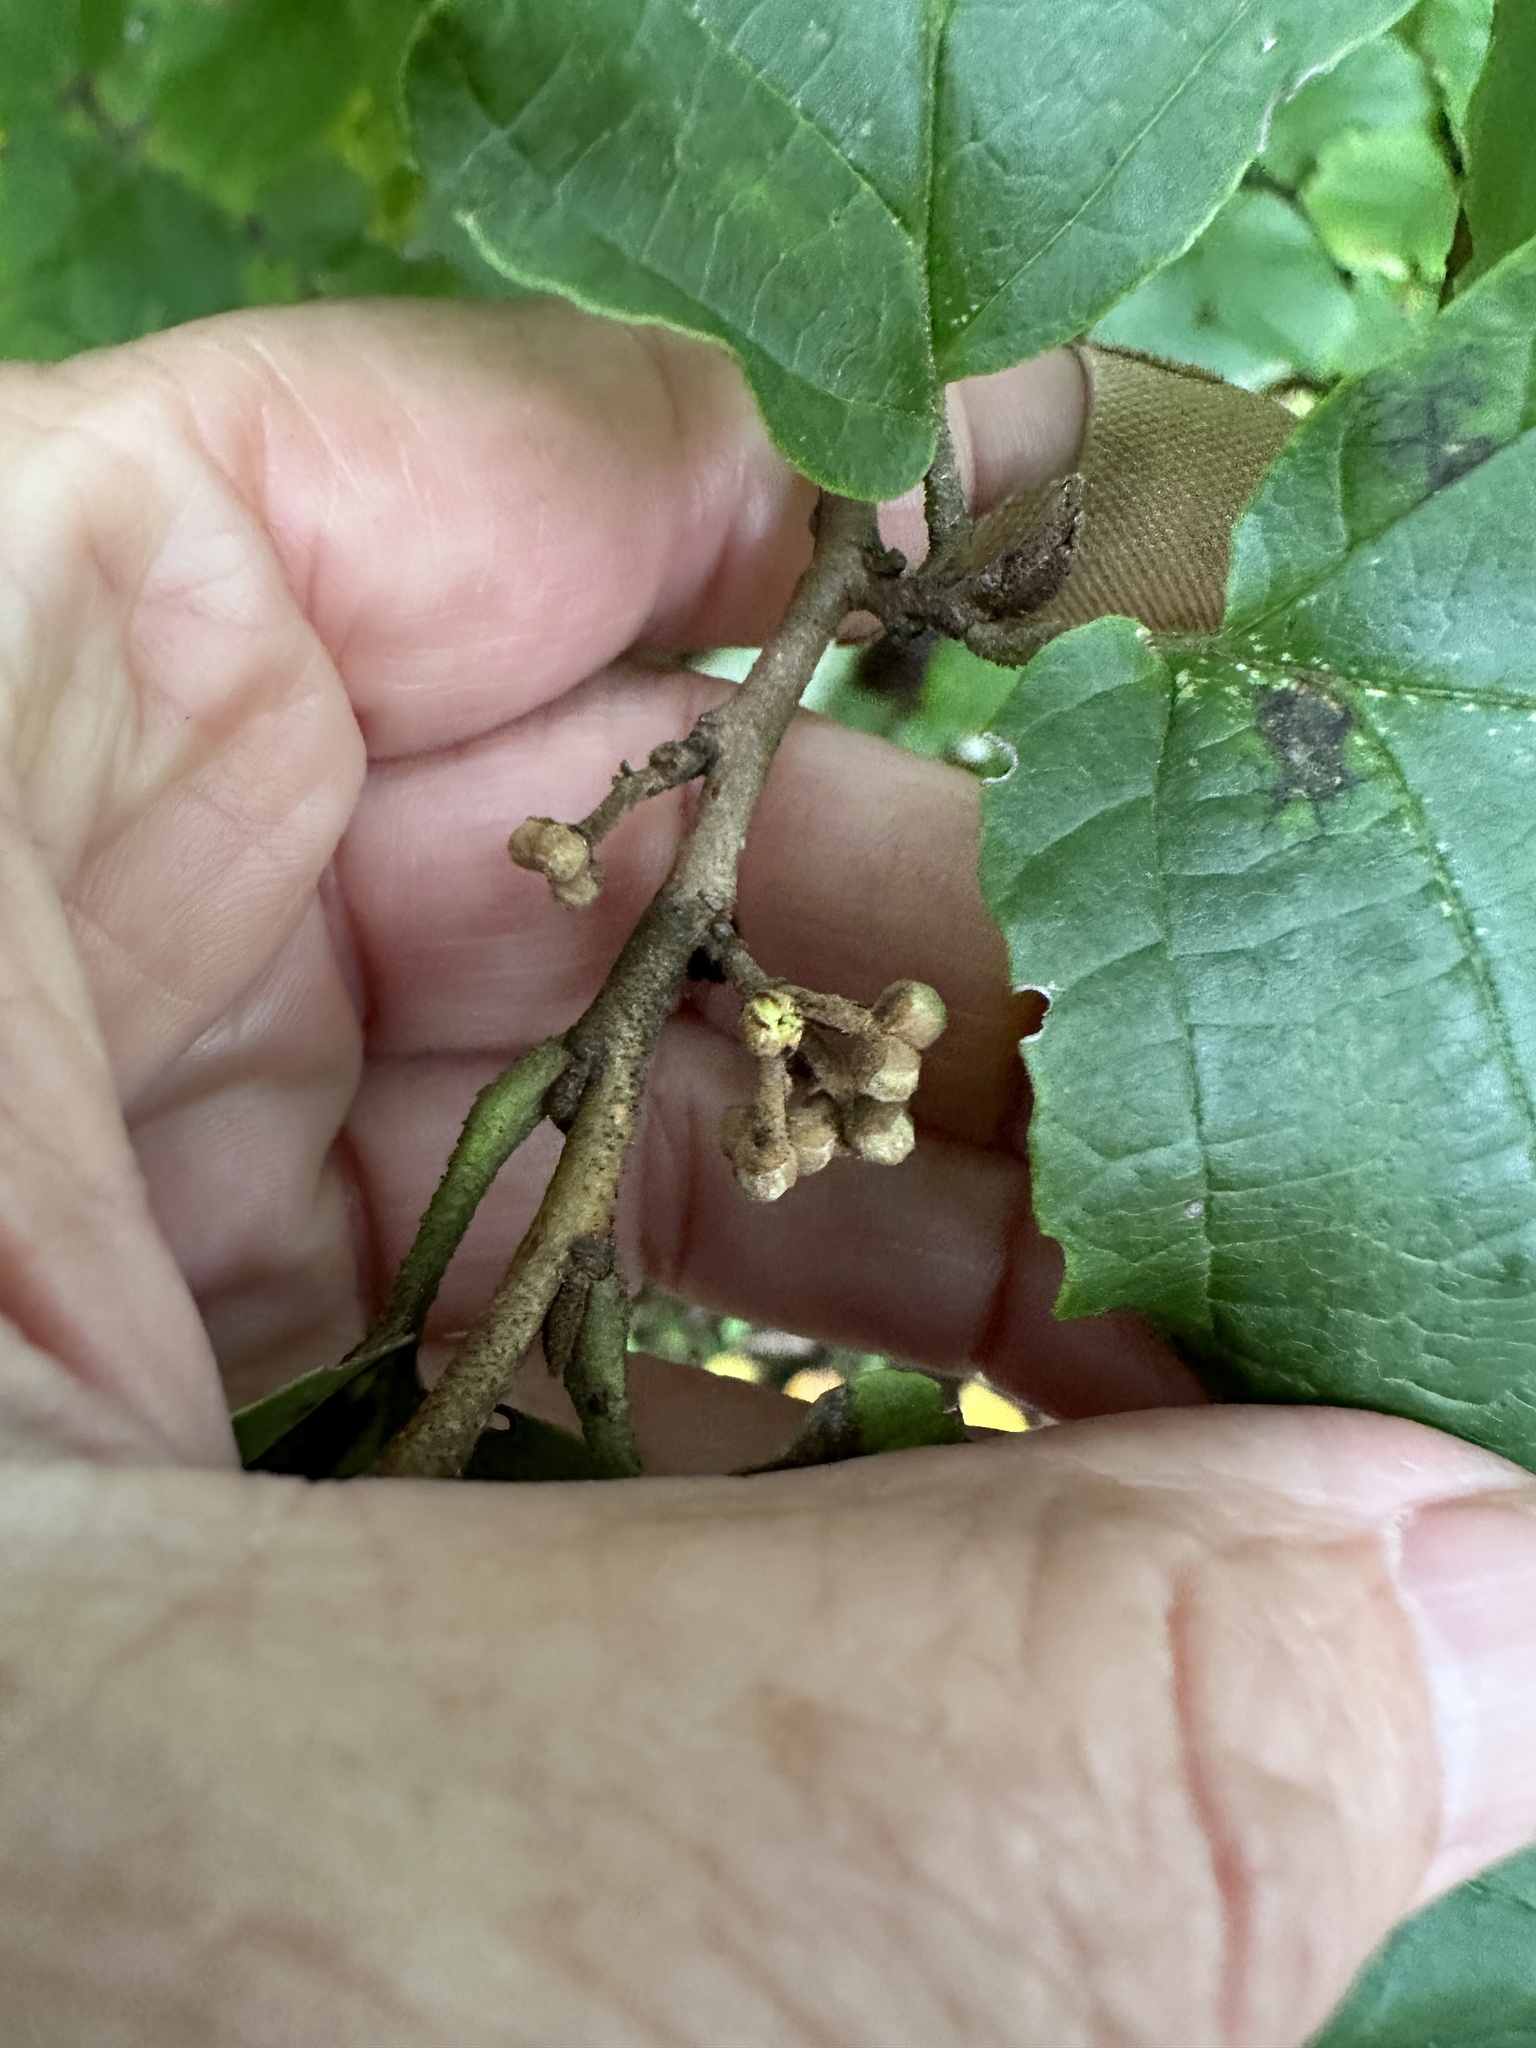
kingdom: Plantae
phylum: Tracheophyta
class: Magnoliopsida
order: Saxifragales
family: Hamamelidaceae
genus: Hamamelis
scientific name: Hamamelis virginiana
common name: Witch-hazel
